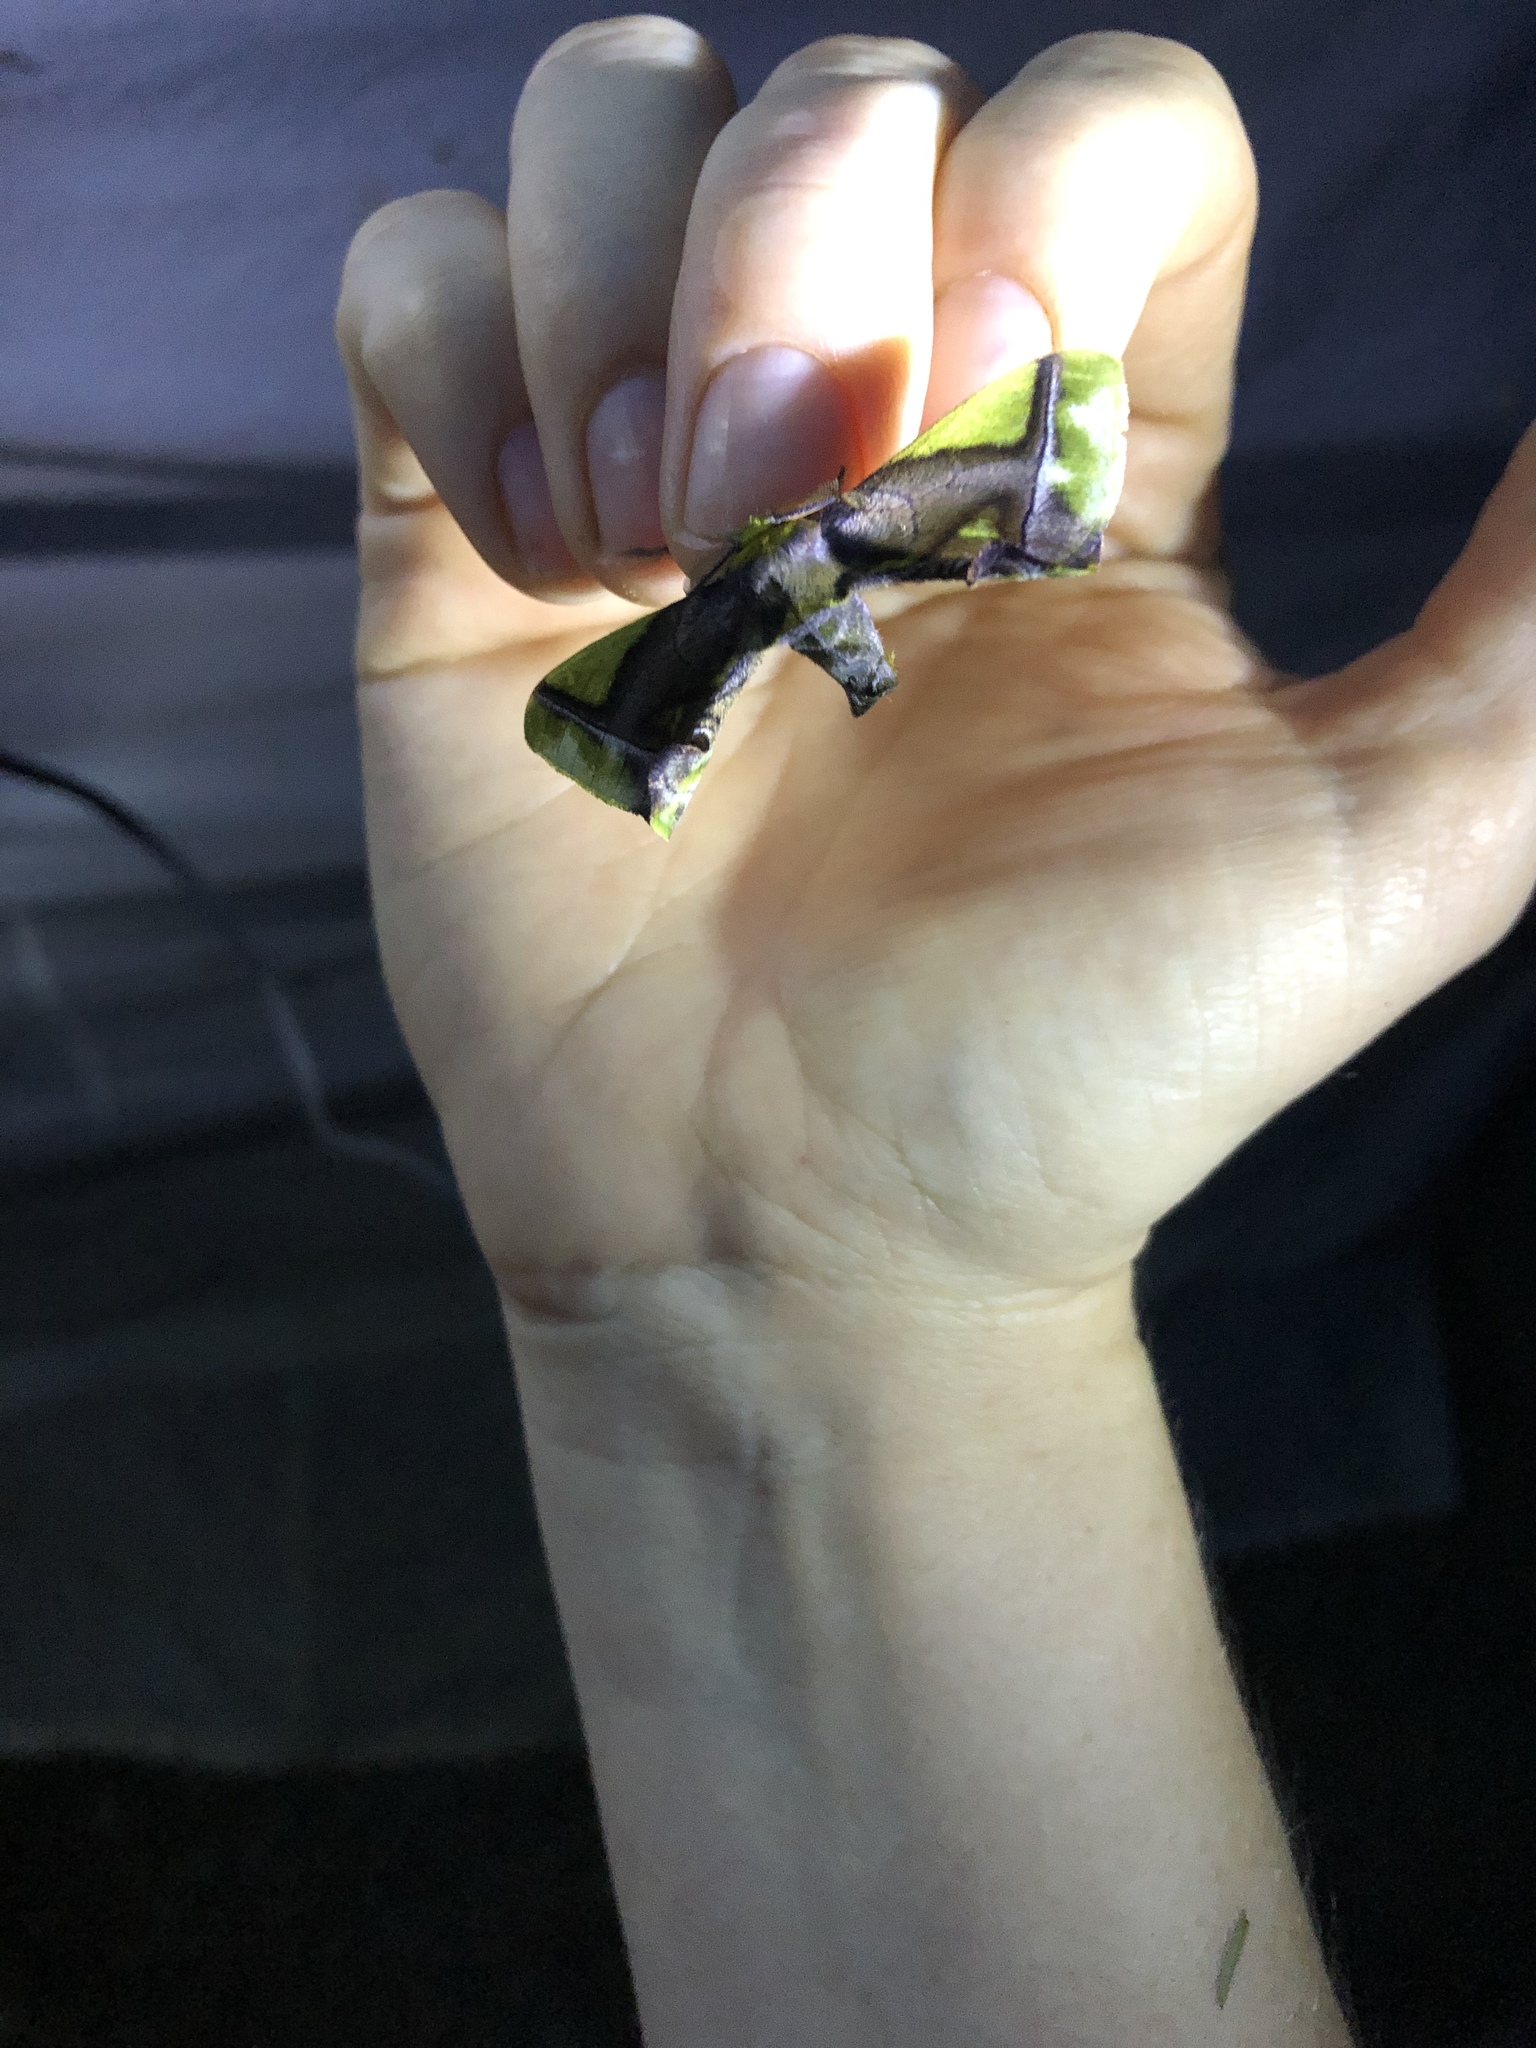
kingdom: Animalia
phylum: Arthropoda
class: Insecta
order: Lepidoptera
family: Bombycidae
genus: Epia
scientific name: Epia muscosa
